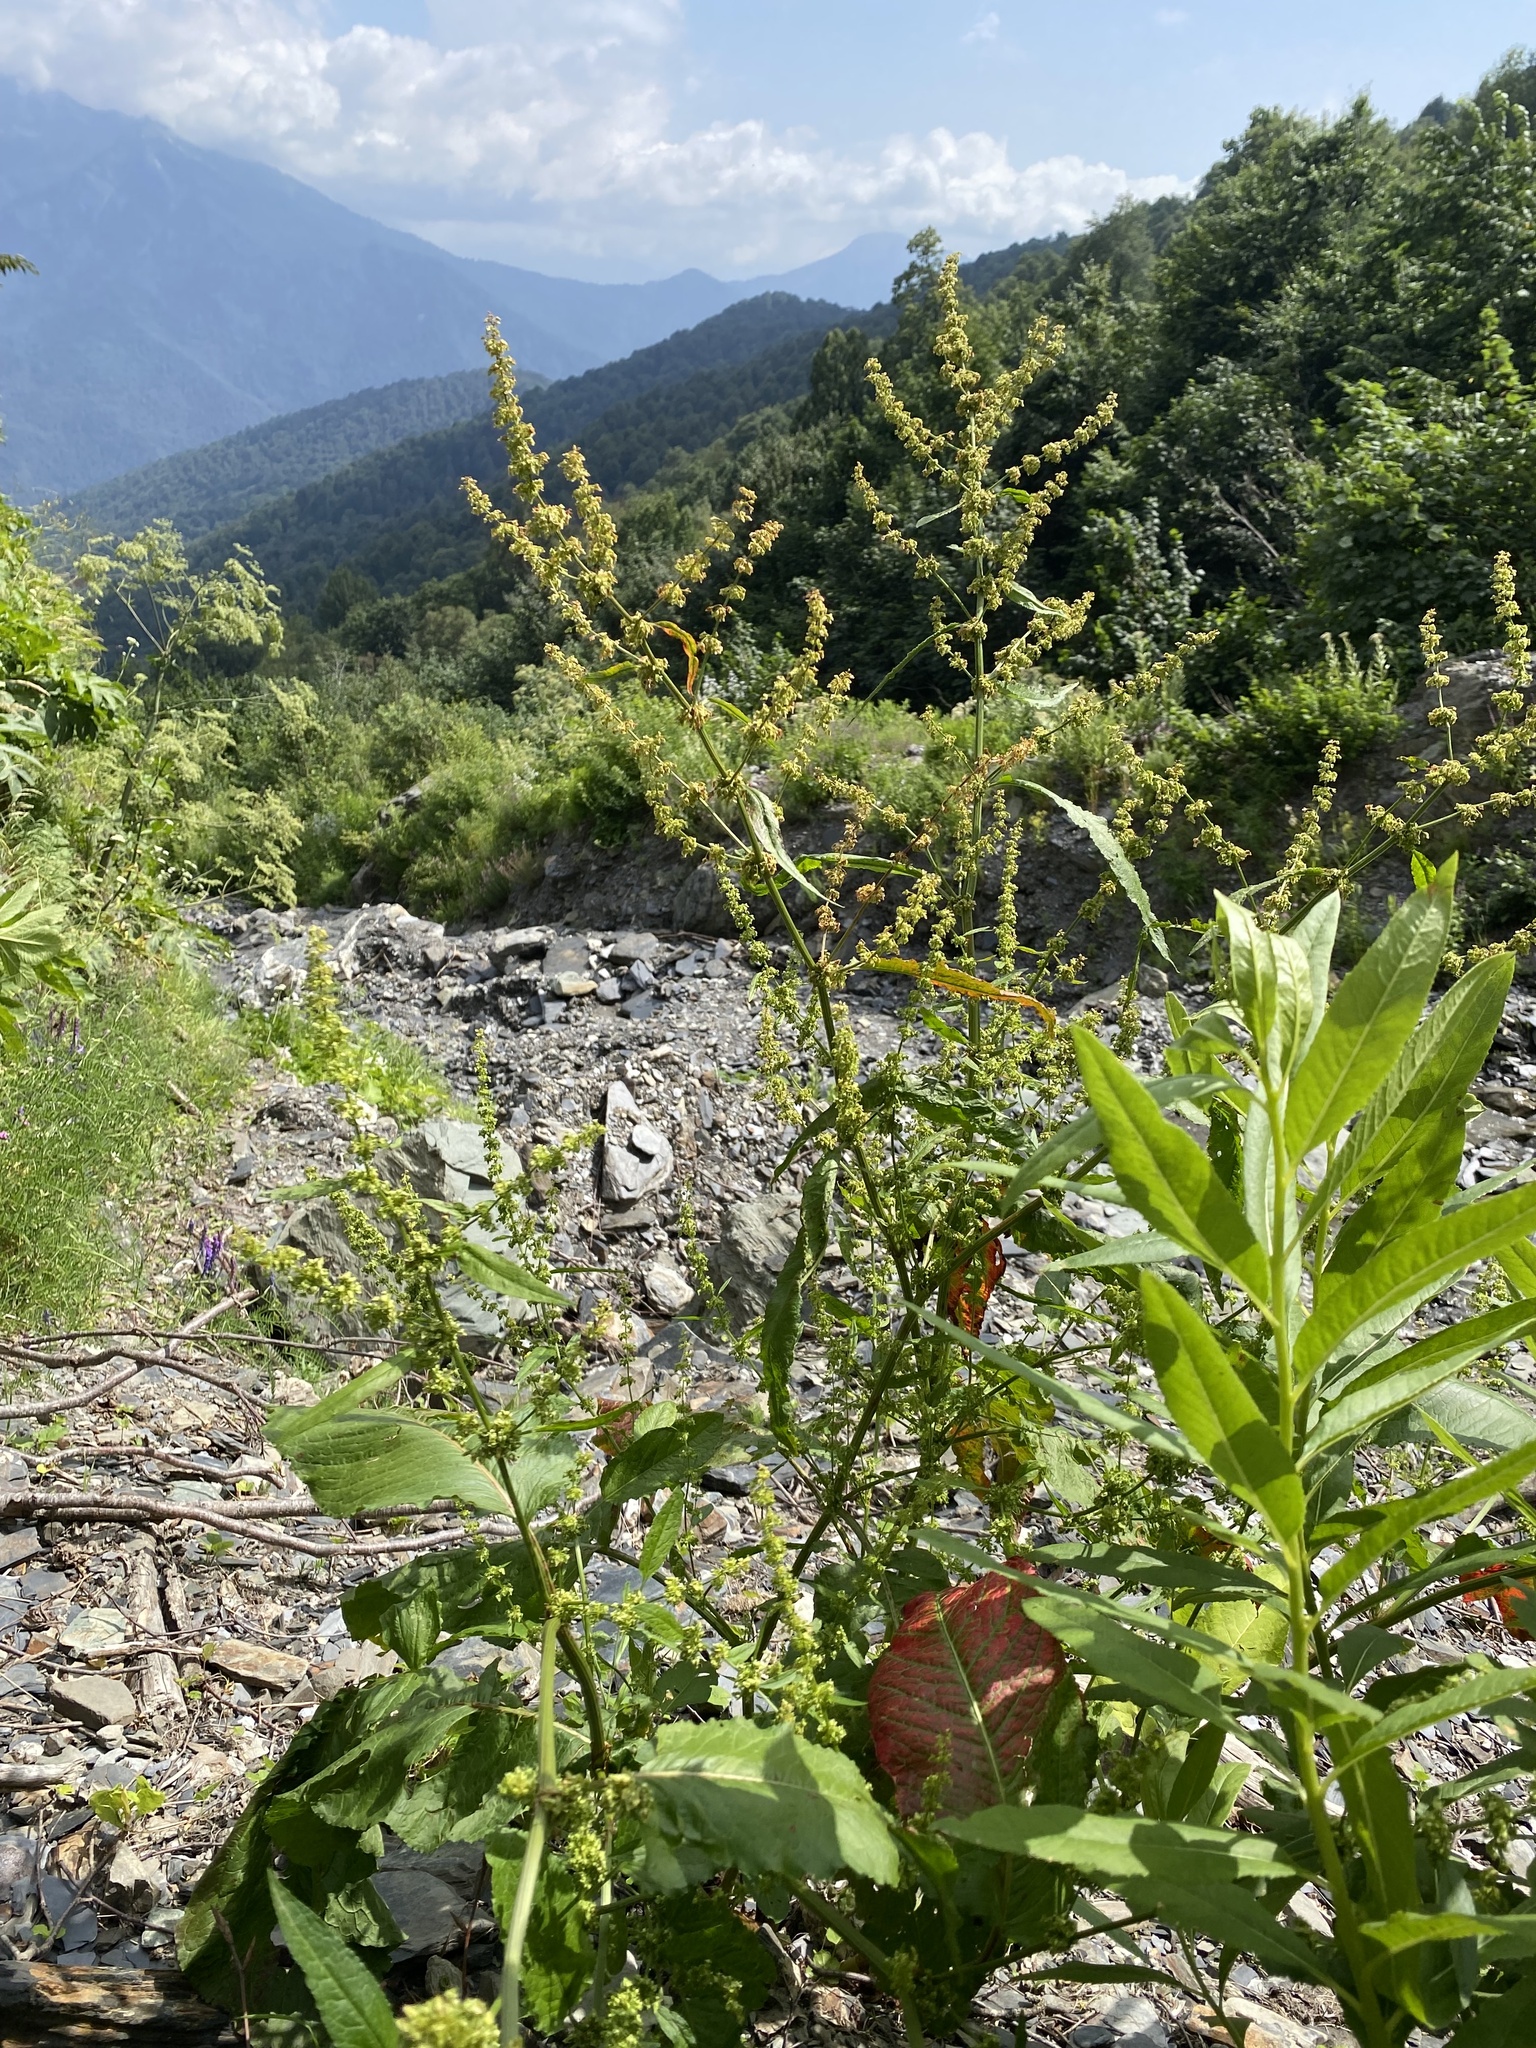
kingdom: Plantae
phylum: Tracheophyta
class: Magnoliopsida
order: Caryophyllales
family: Polygonaceae
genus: Rumex
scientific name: Rumex obtusifolius
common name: Bitter dock
